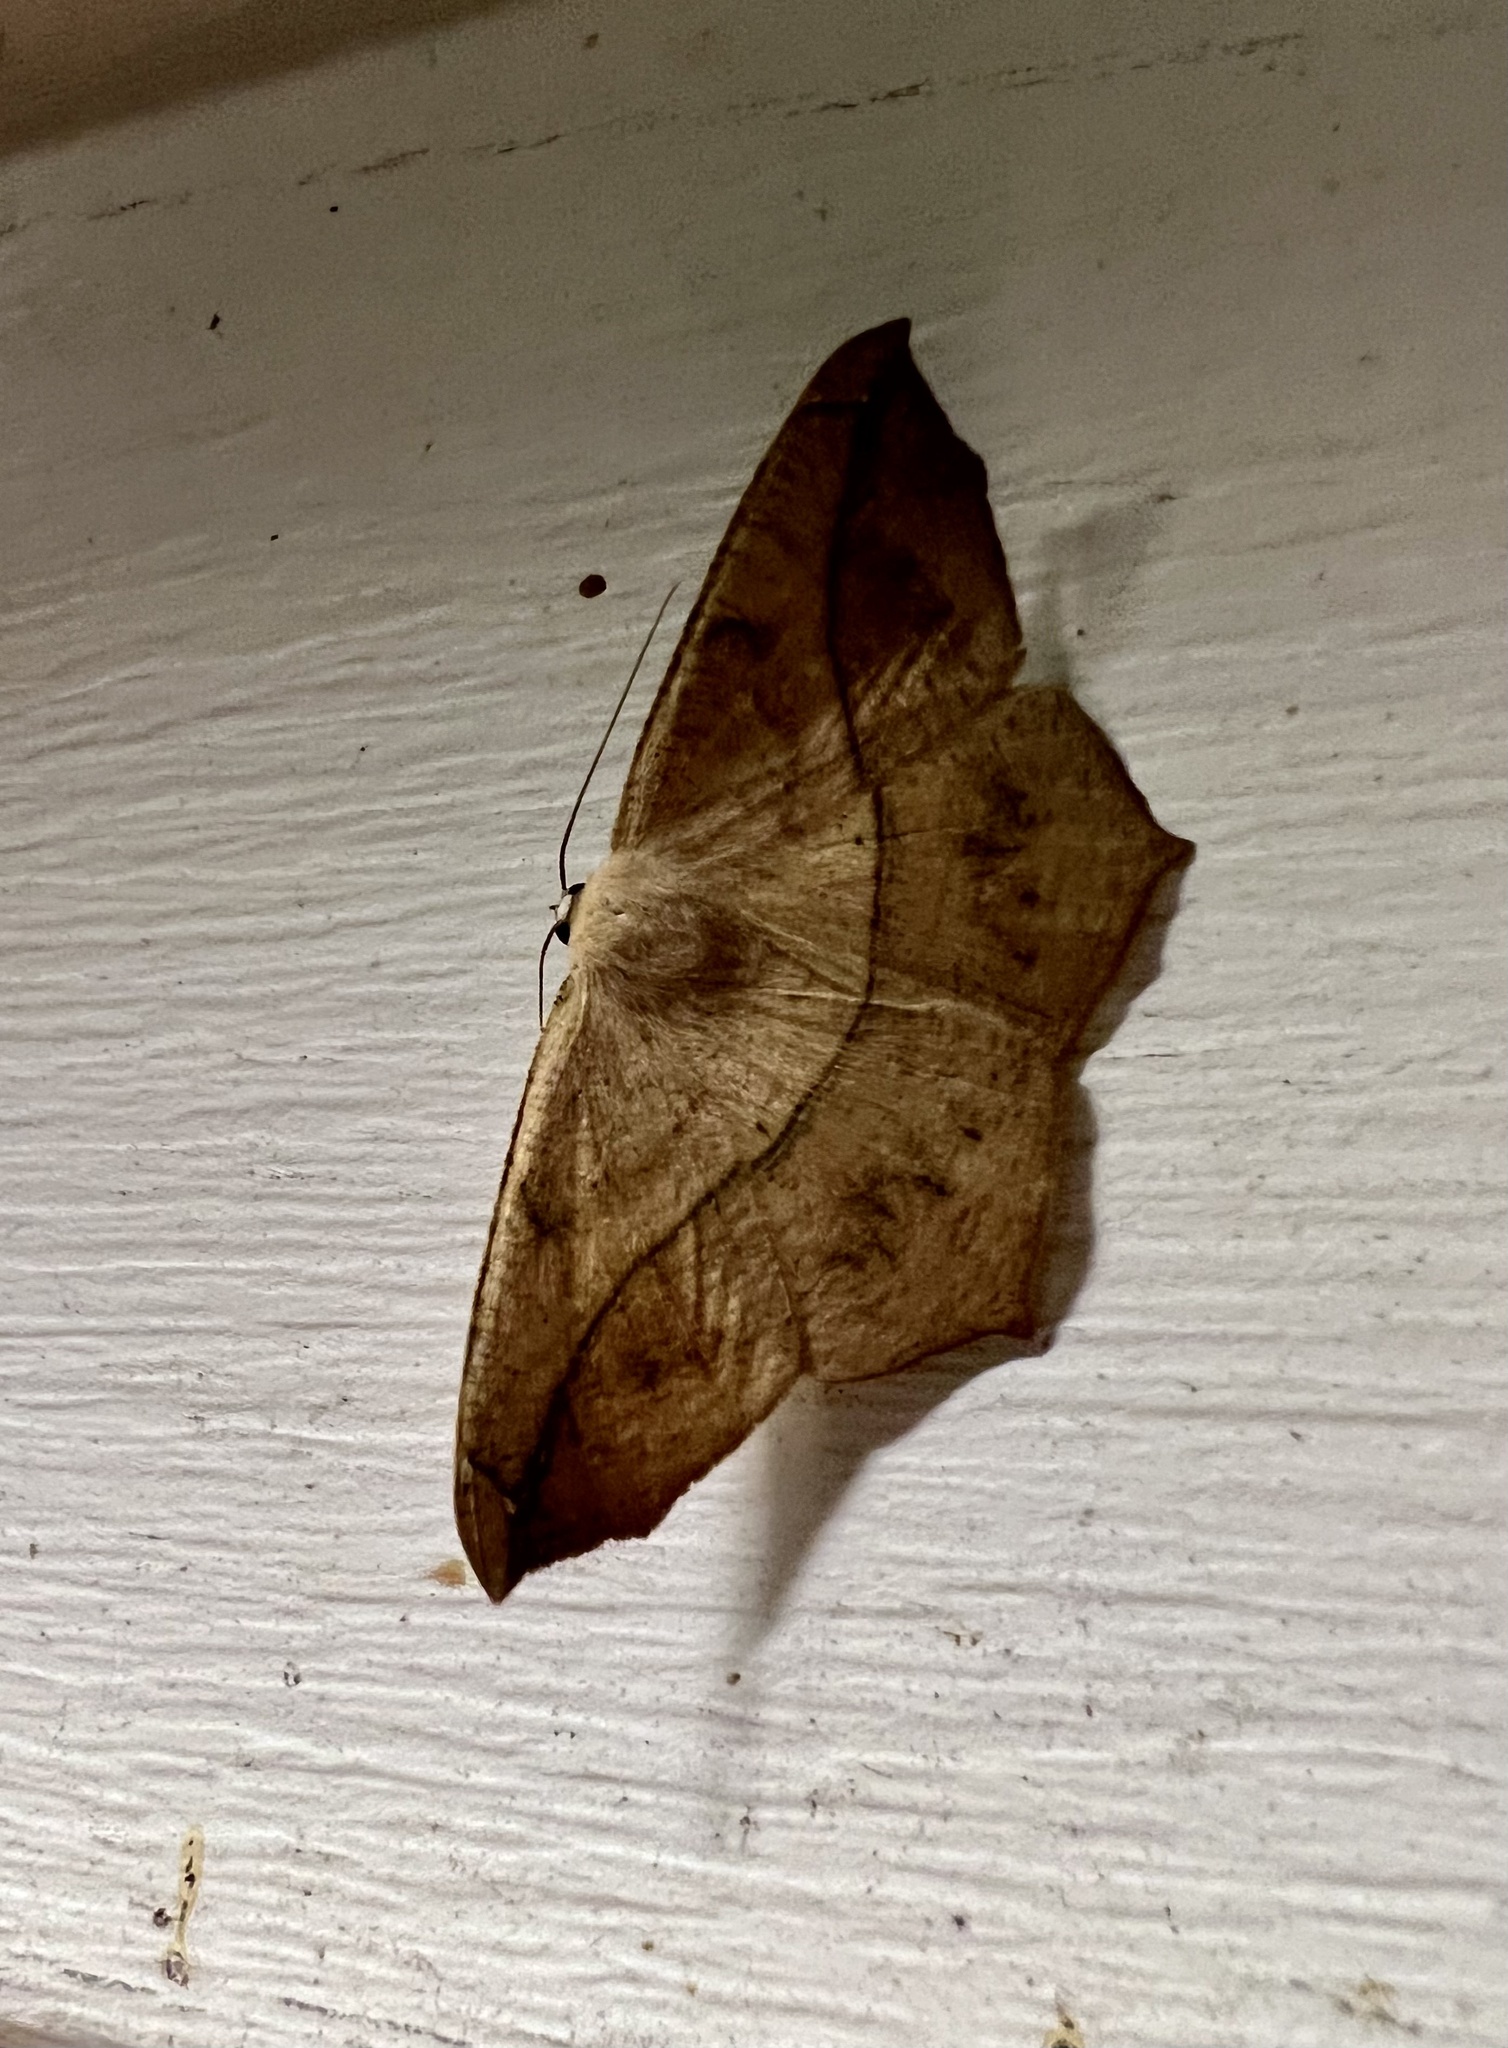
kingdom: Animalia
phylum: Arthropoda
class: Insecta
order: Lepidoptera
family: Geometridae
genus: Prochoerodes
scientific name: Prochoerodes lineola
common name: Large maple spanworm
